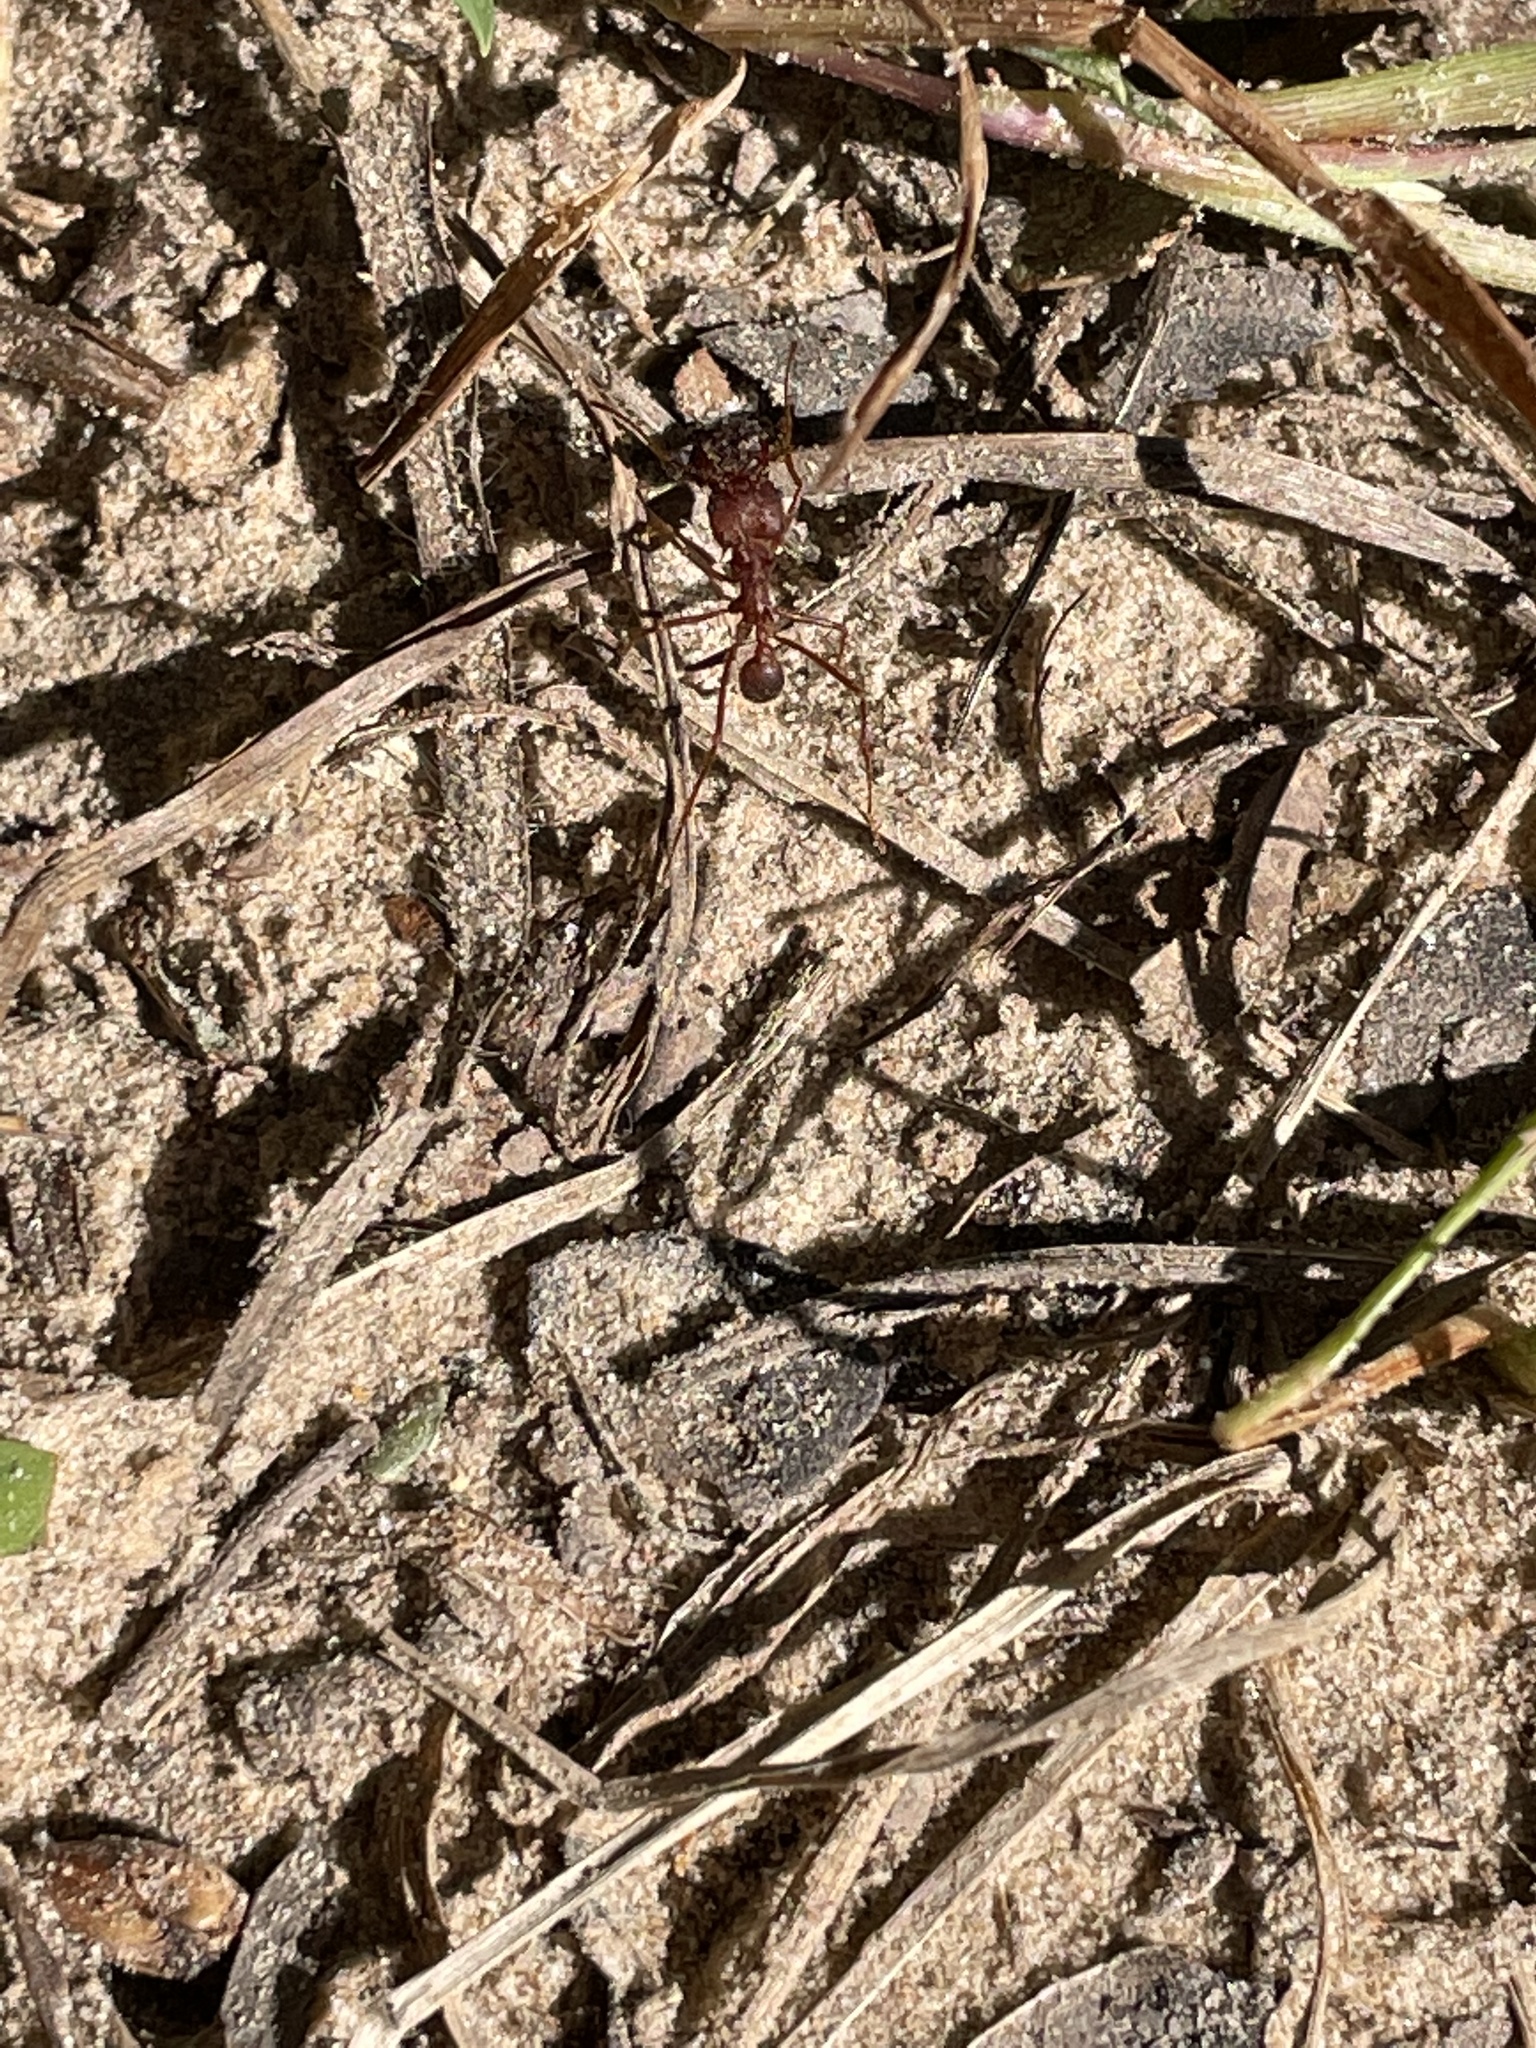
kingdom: Animalia
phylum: Arthropoda
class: Insecta
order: Hymenoptera
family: Formicidae
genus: Atta
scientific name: Atta texana
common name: Texas leafcutting ant
